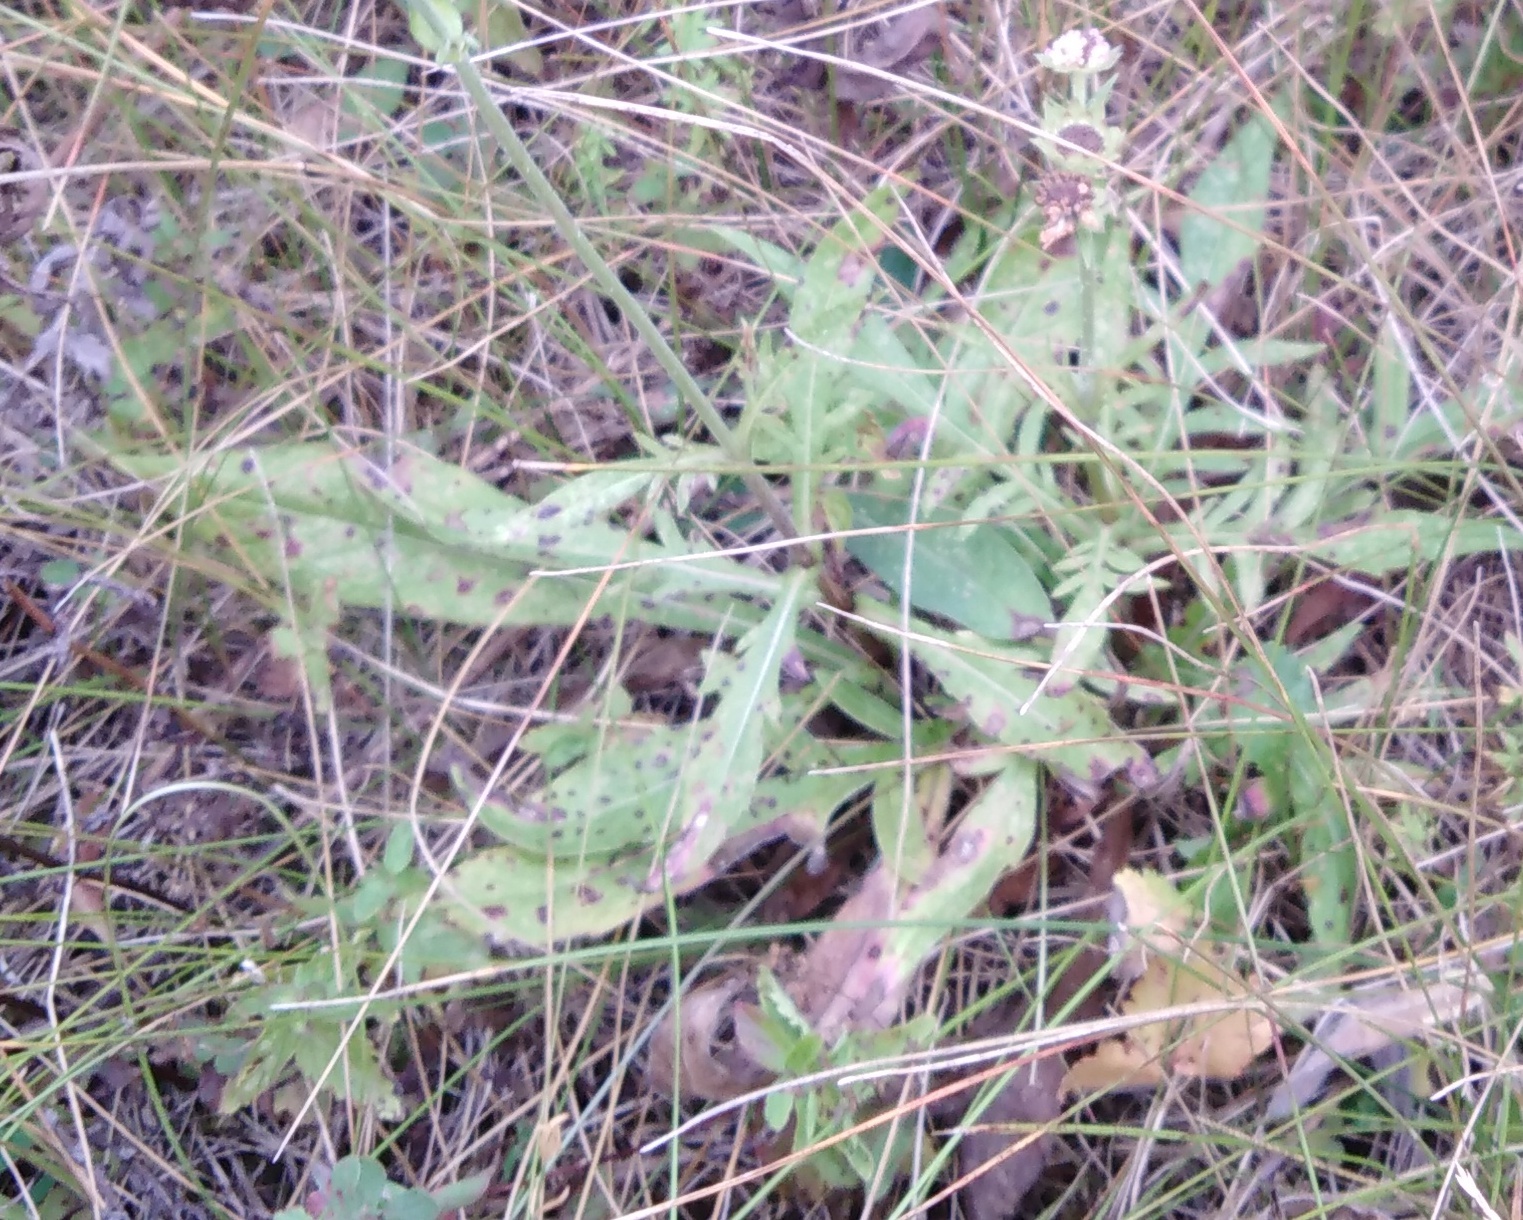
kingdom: Plantae
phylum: Tracheophyta
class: Magnoliopsida
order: Dipsacales
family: Caprifoliaceae
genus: Knautia
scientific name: Knautia arvensis
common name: Field scabiosa
